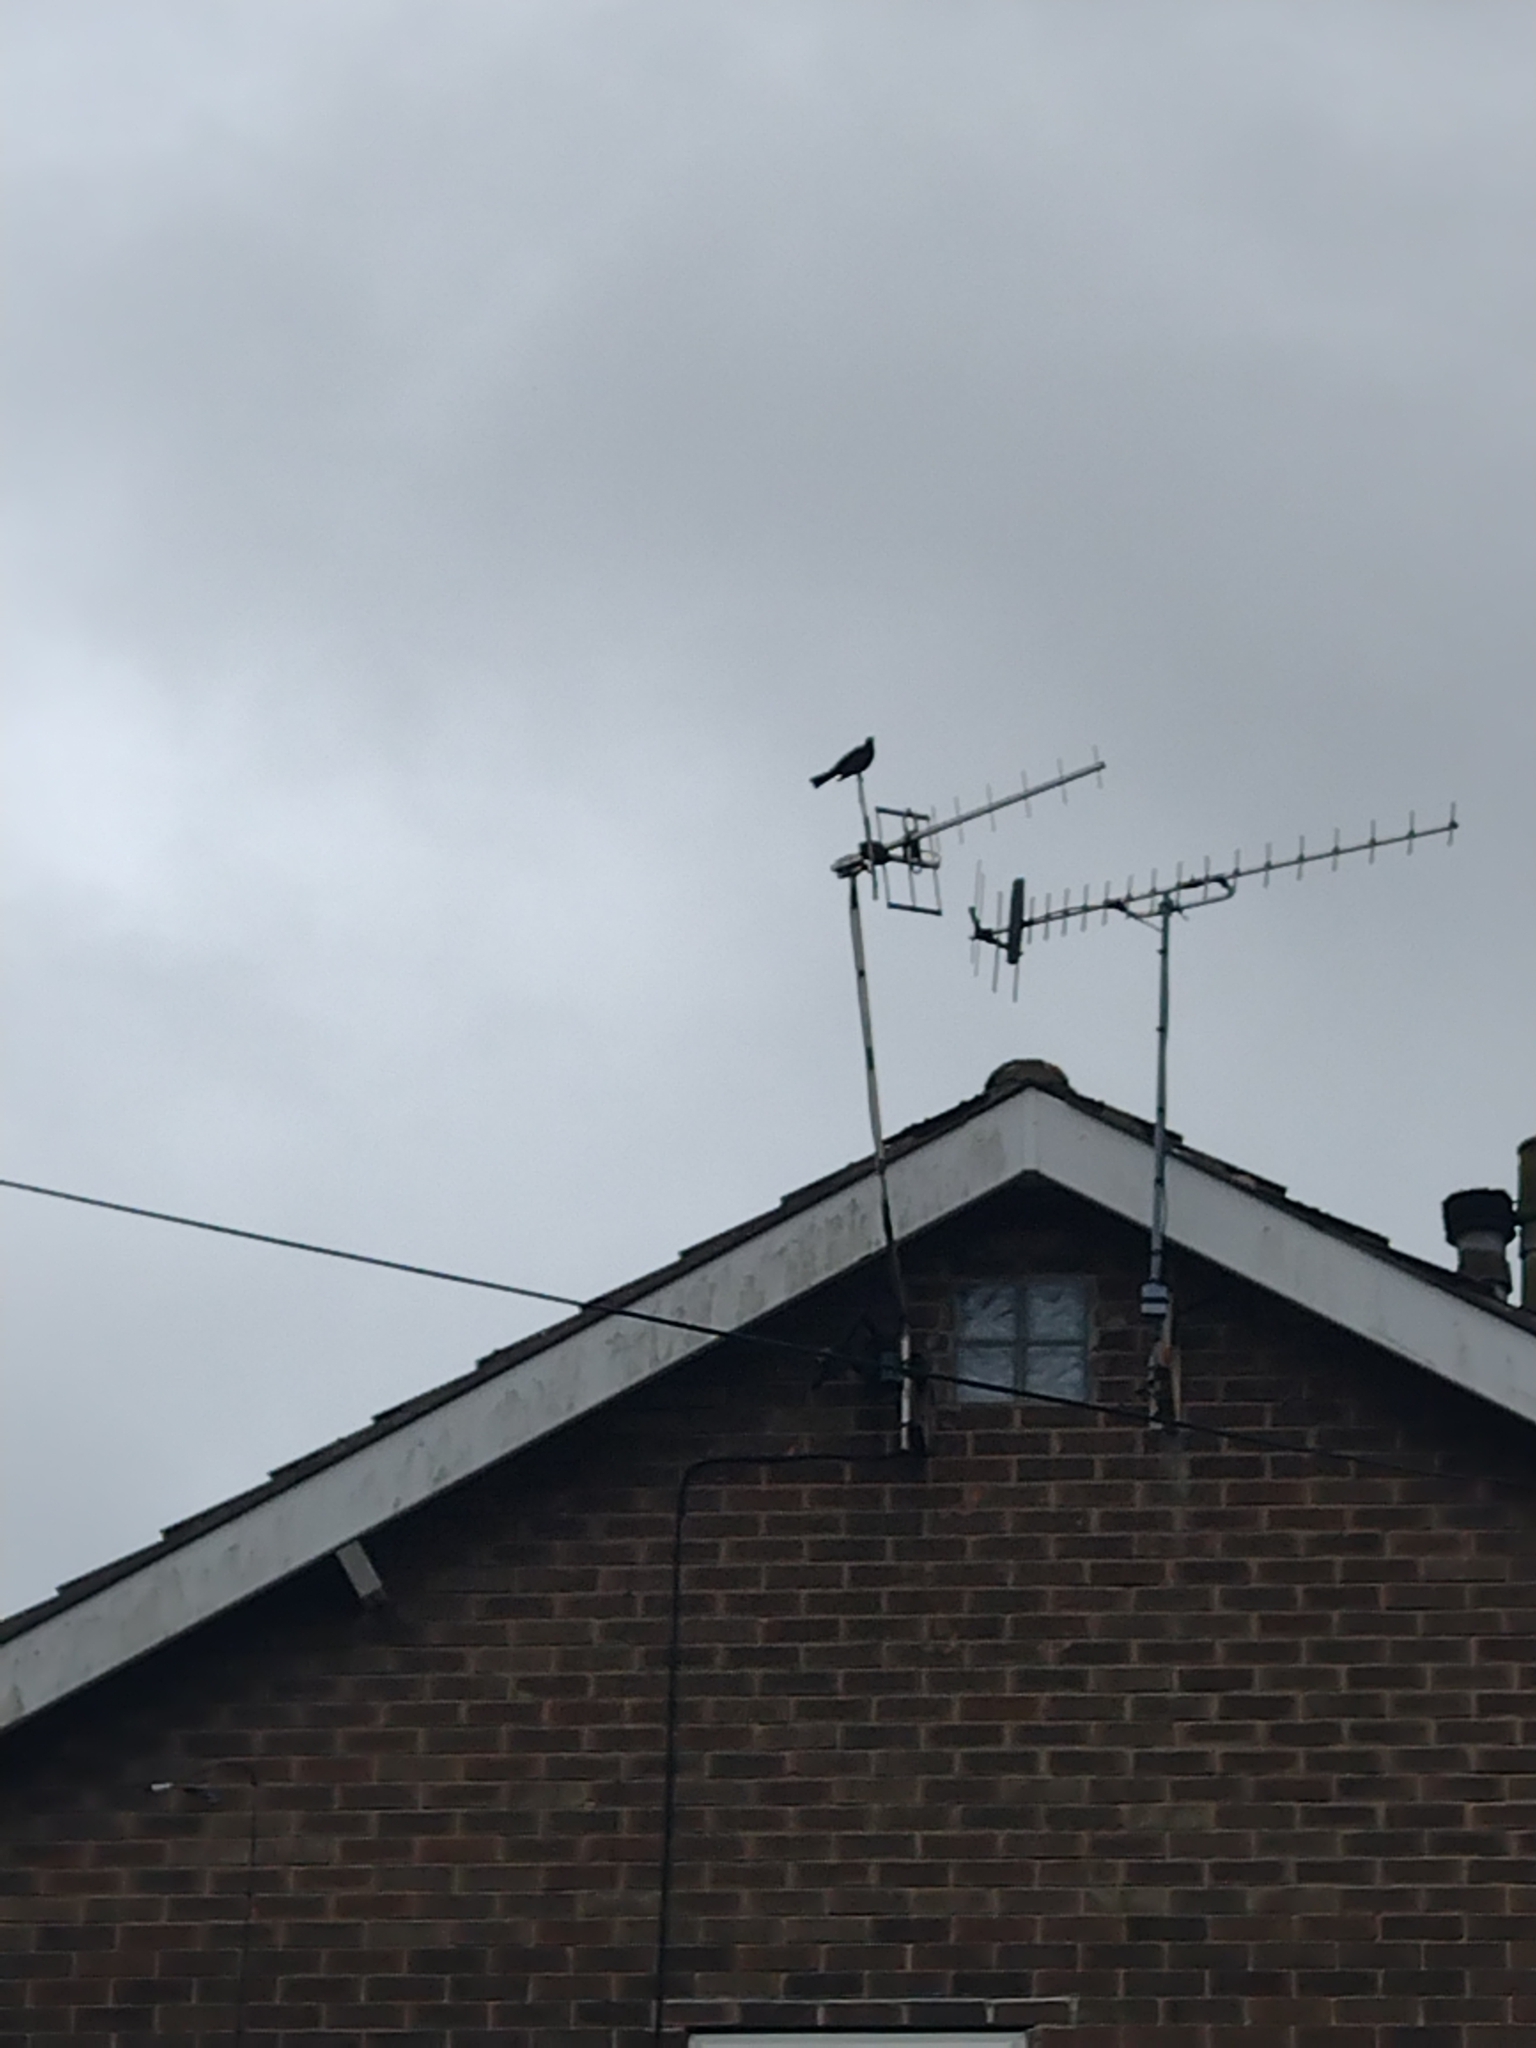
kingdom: Animalia
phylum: Chordata
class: Aves
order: Passeriformes
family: Turdidae
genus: Turdus
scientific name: Turdus merula
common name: Common blackbird
